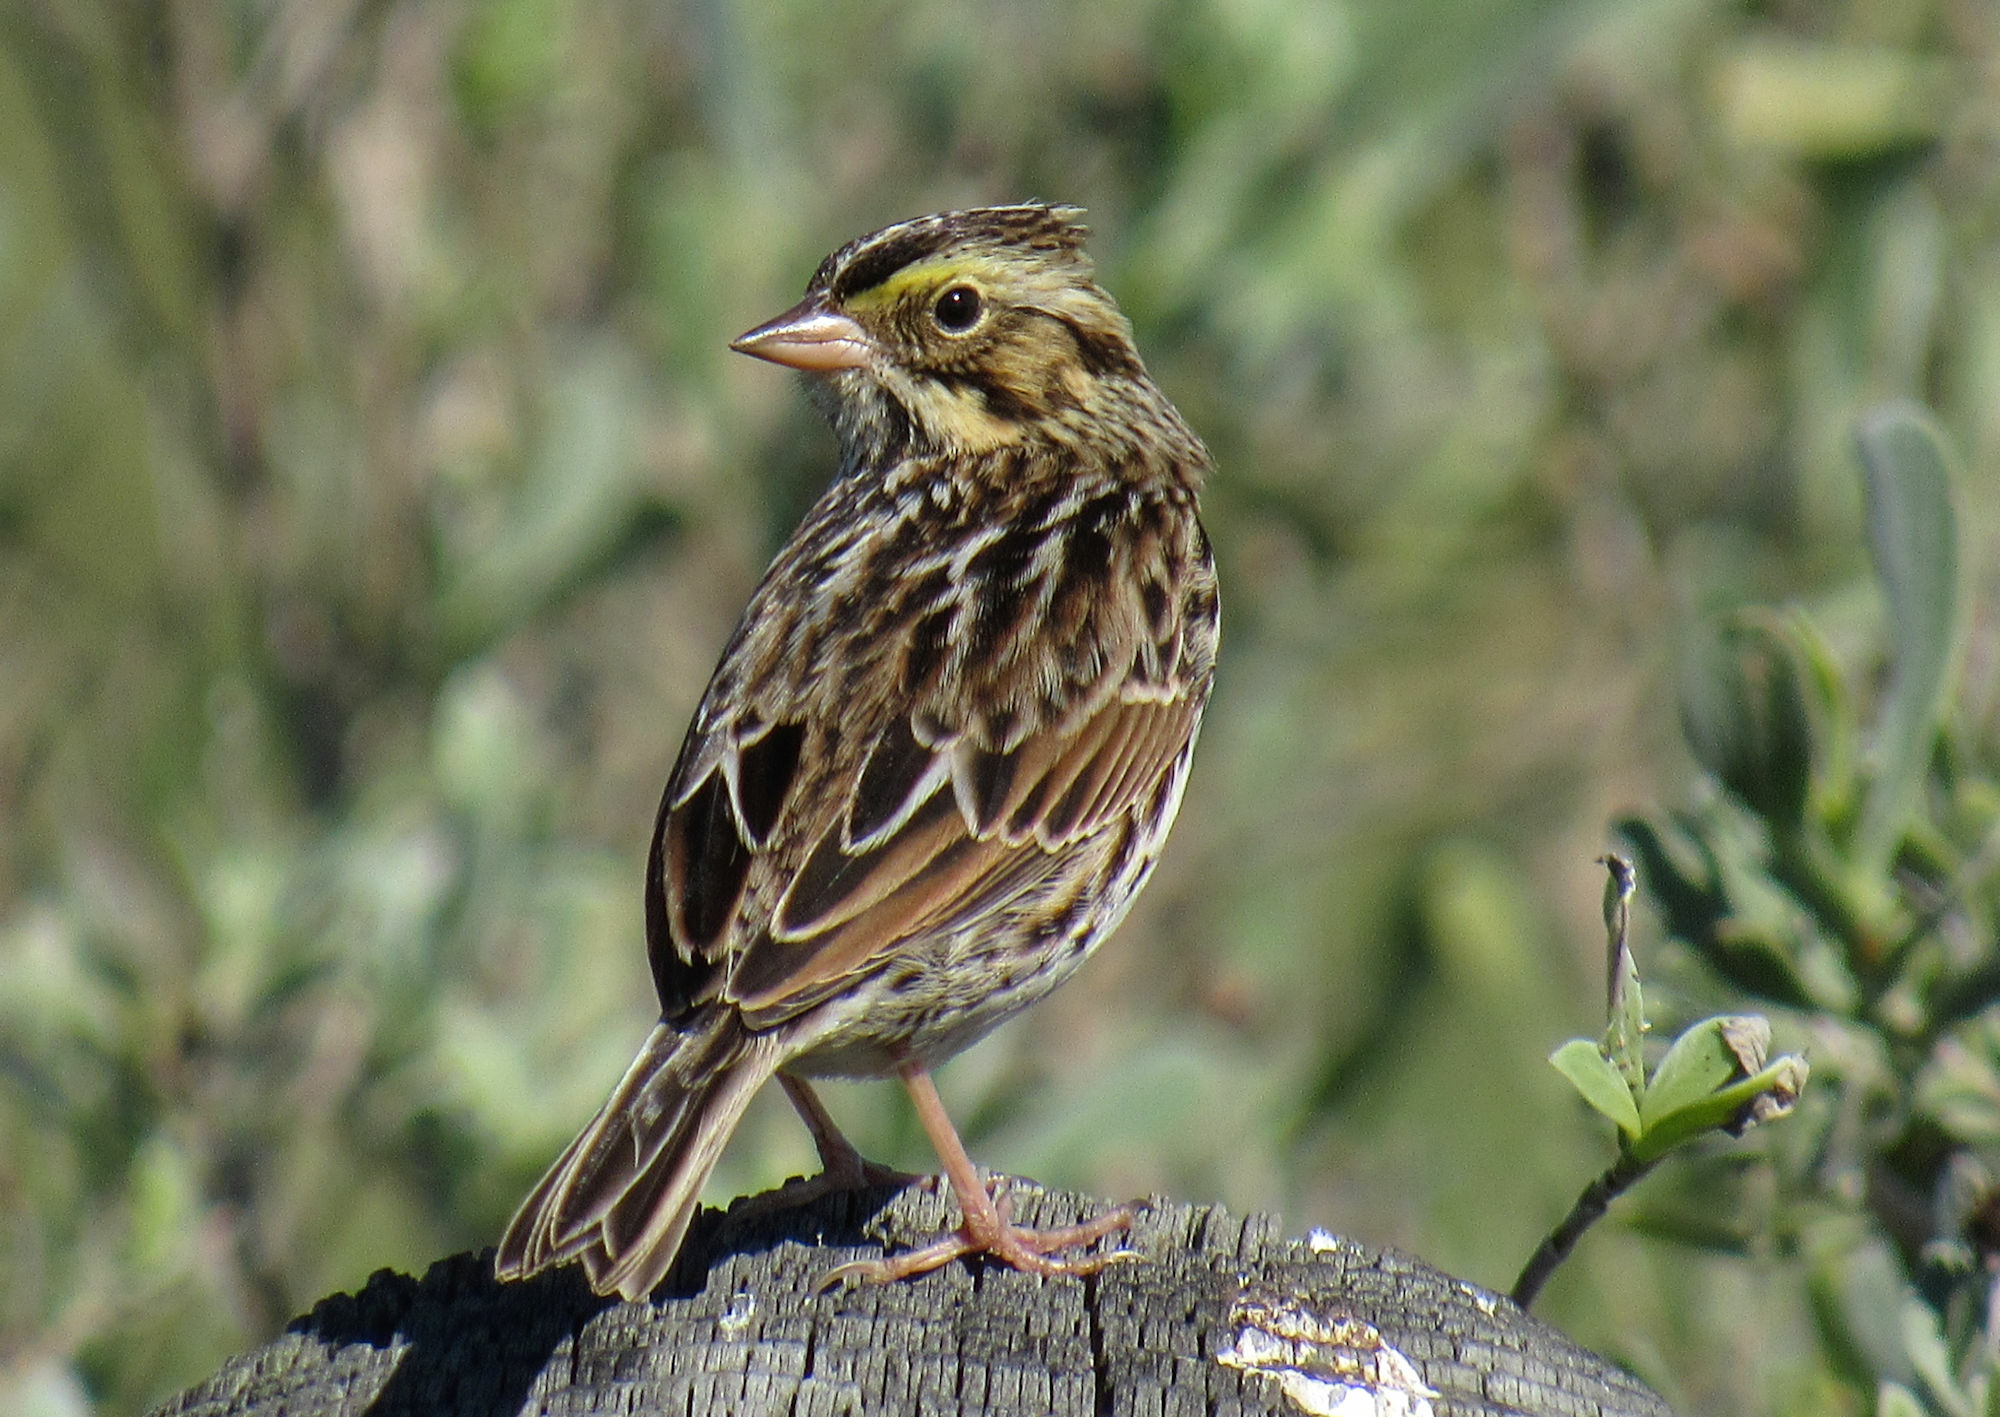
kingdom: Animalia
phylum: Chordata
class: Aves
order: Passeriformes
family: Passerellidae
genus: Passerculus
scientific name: Passerculus sandwichensis
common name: Savannah sparrow
